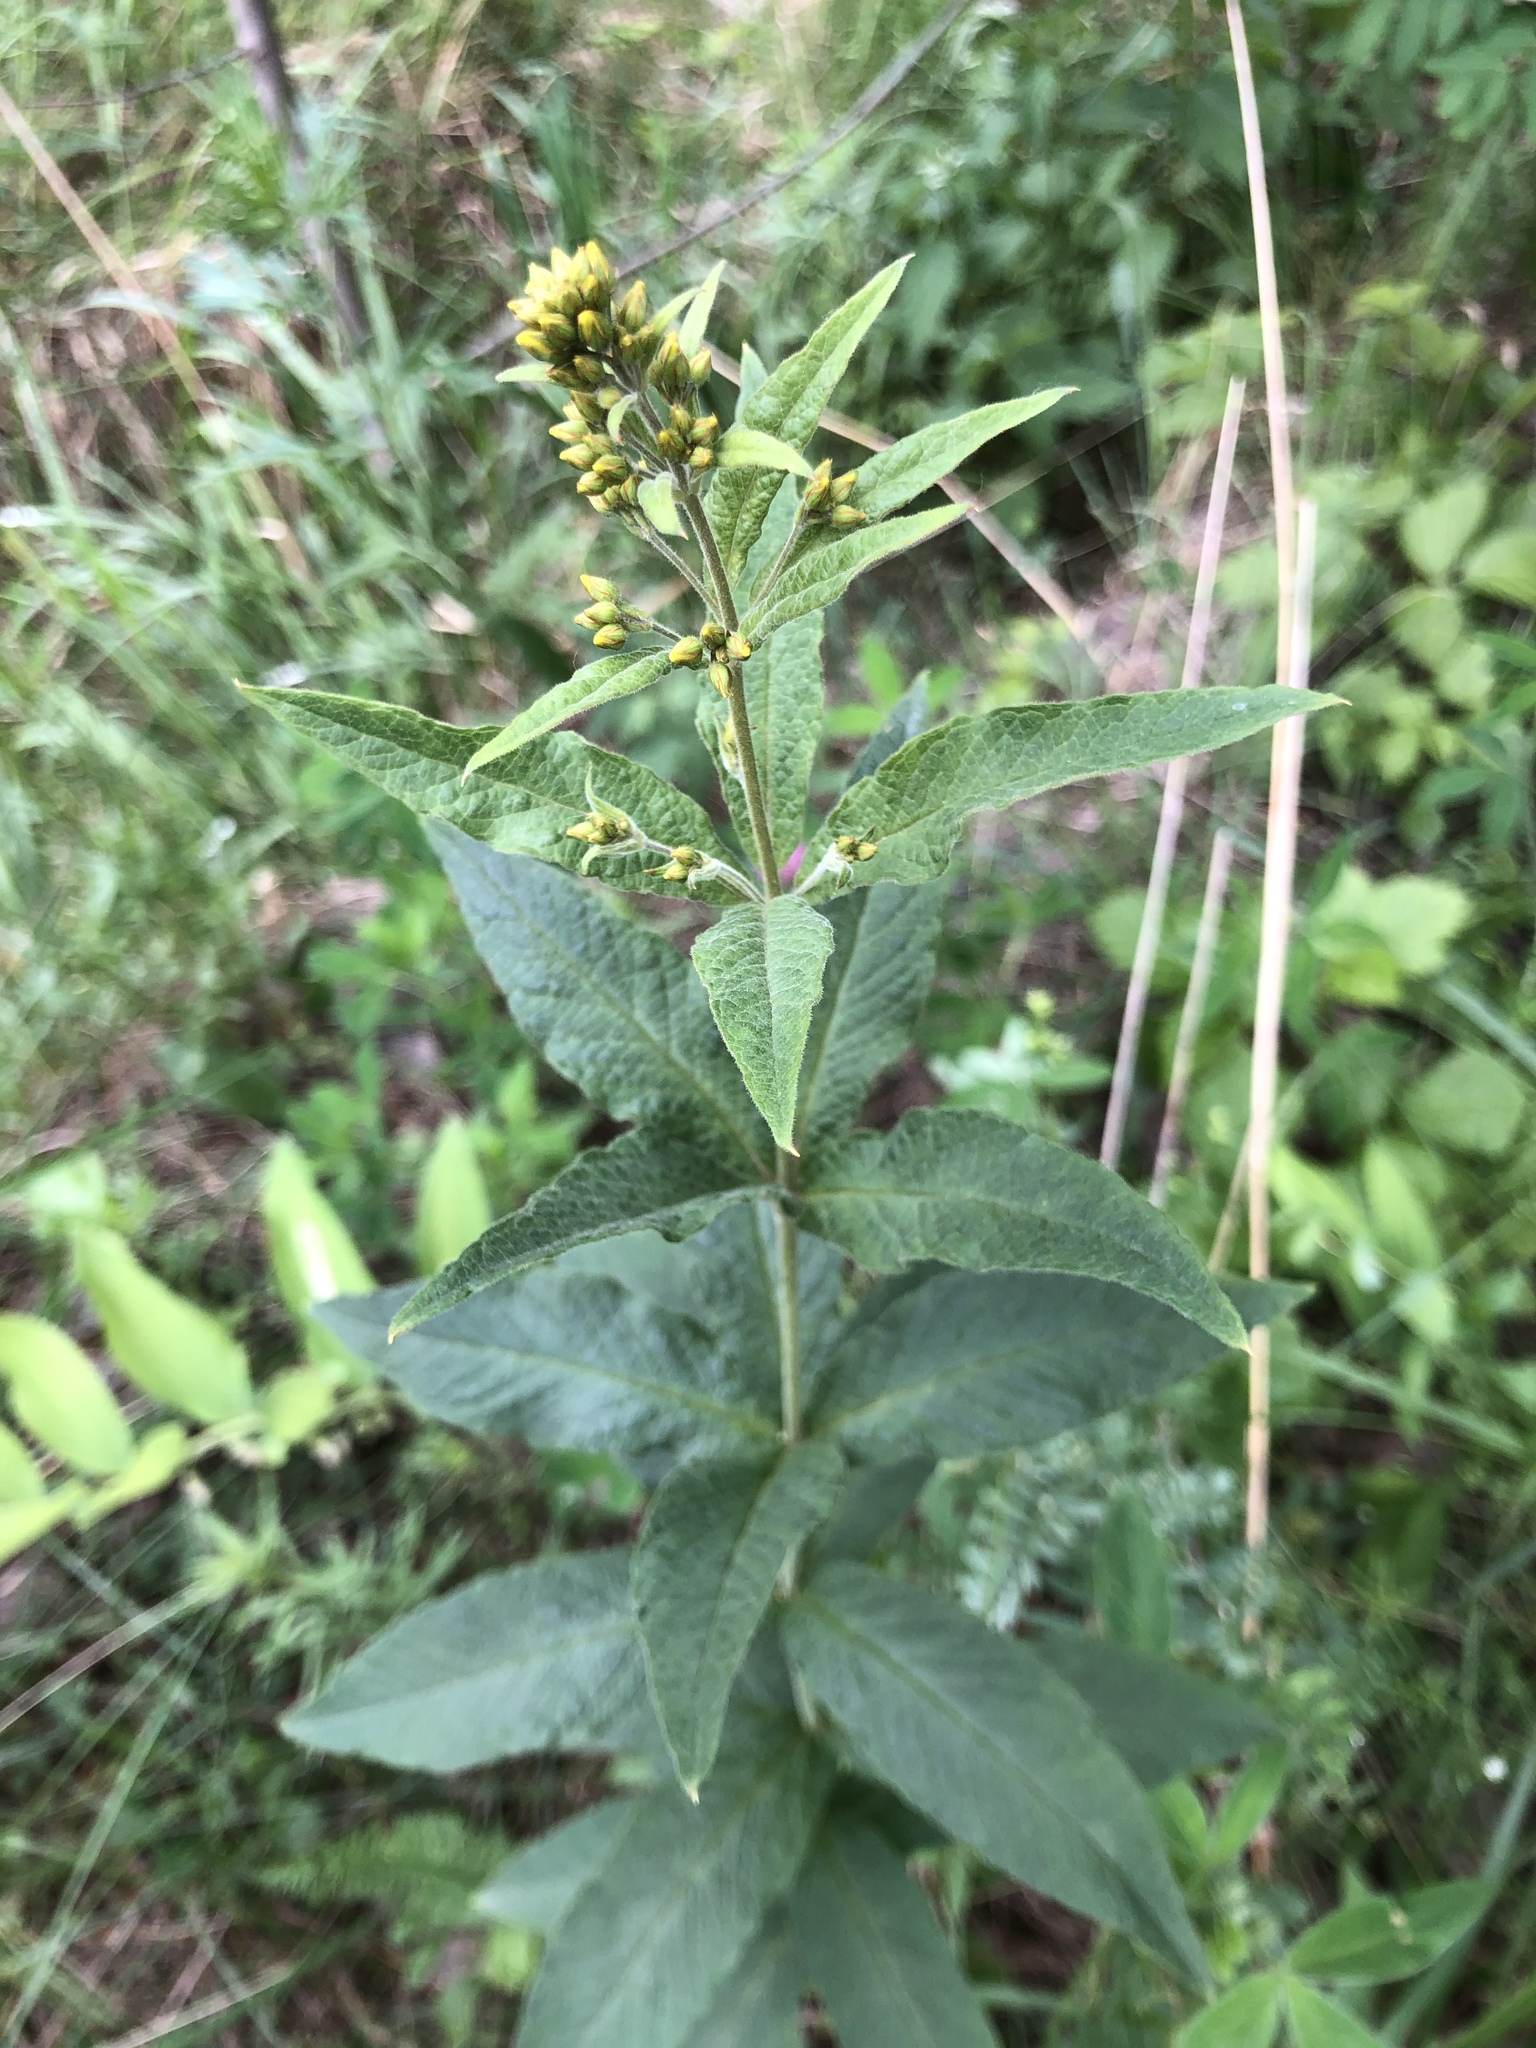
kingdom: Plantae
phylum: Tracheophyta
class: Magnoliopsida
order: Ericales
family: Primulaceae
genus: Lysimachia
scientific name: Lysimachia vulgaris
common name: Yellow loosestrife
